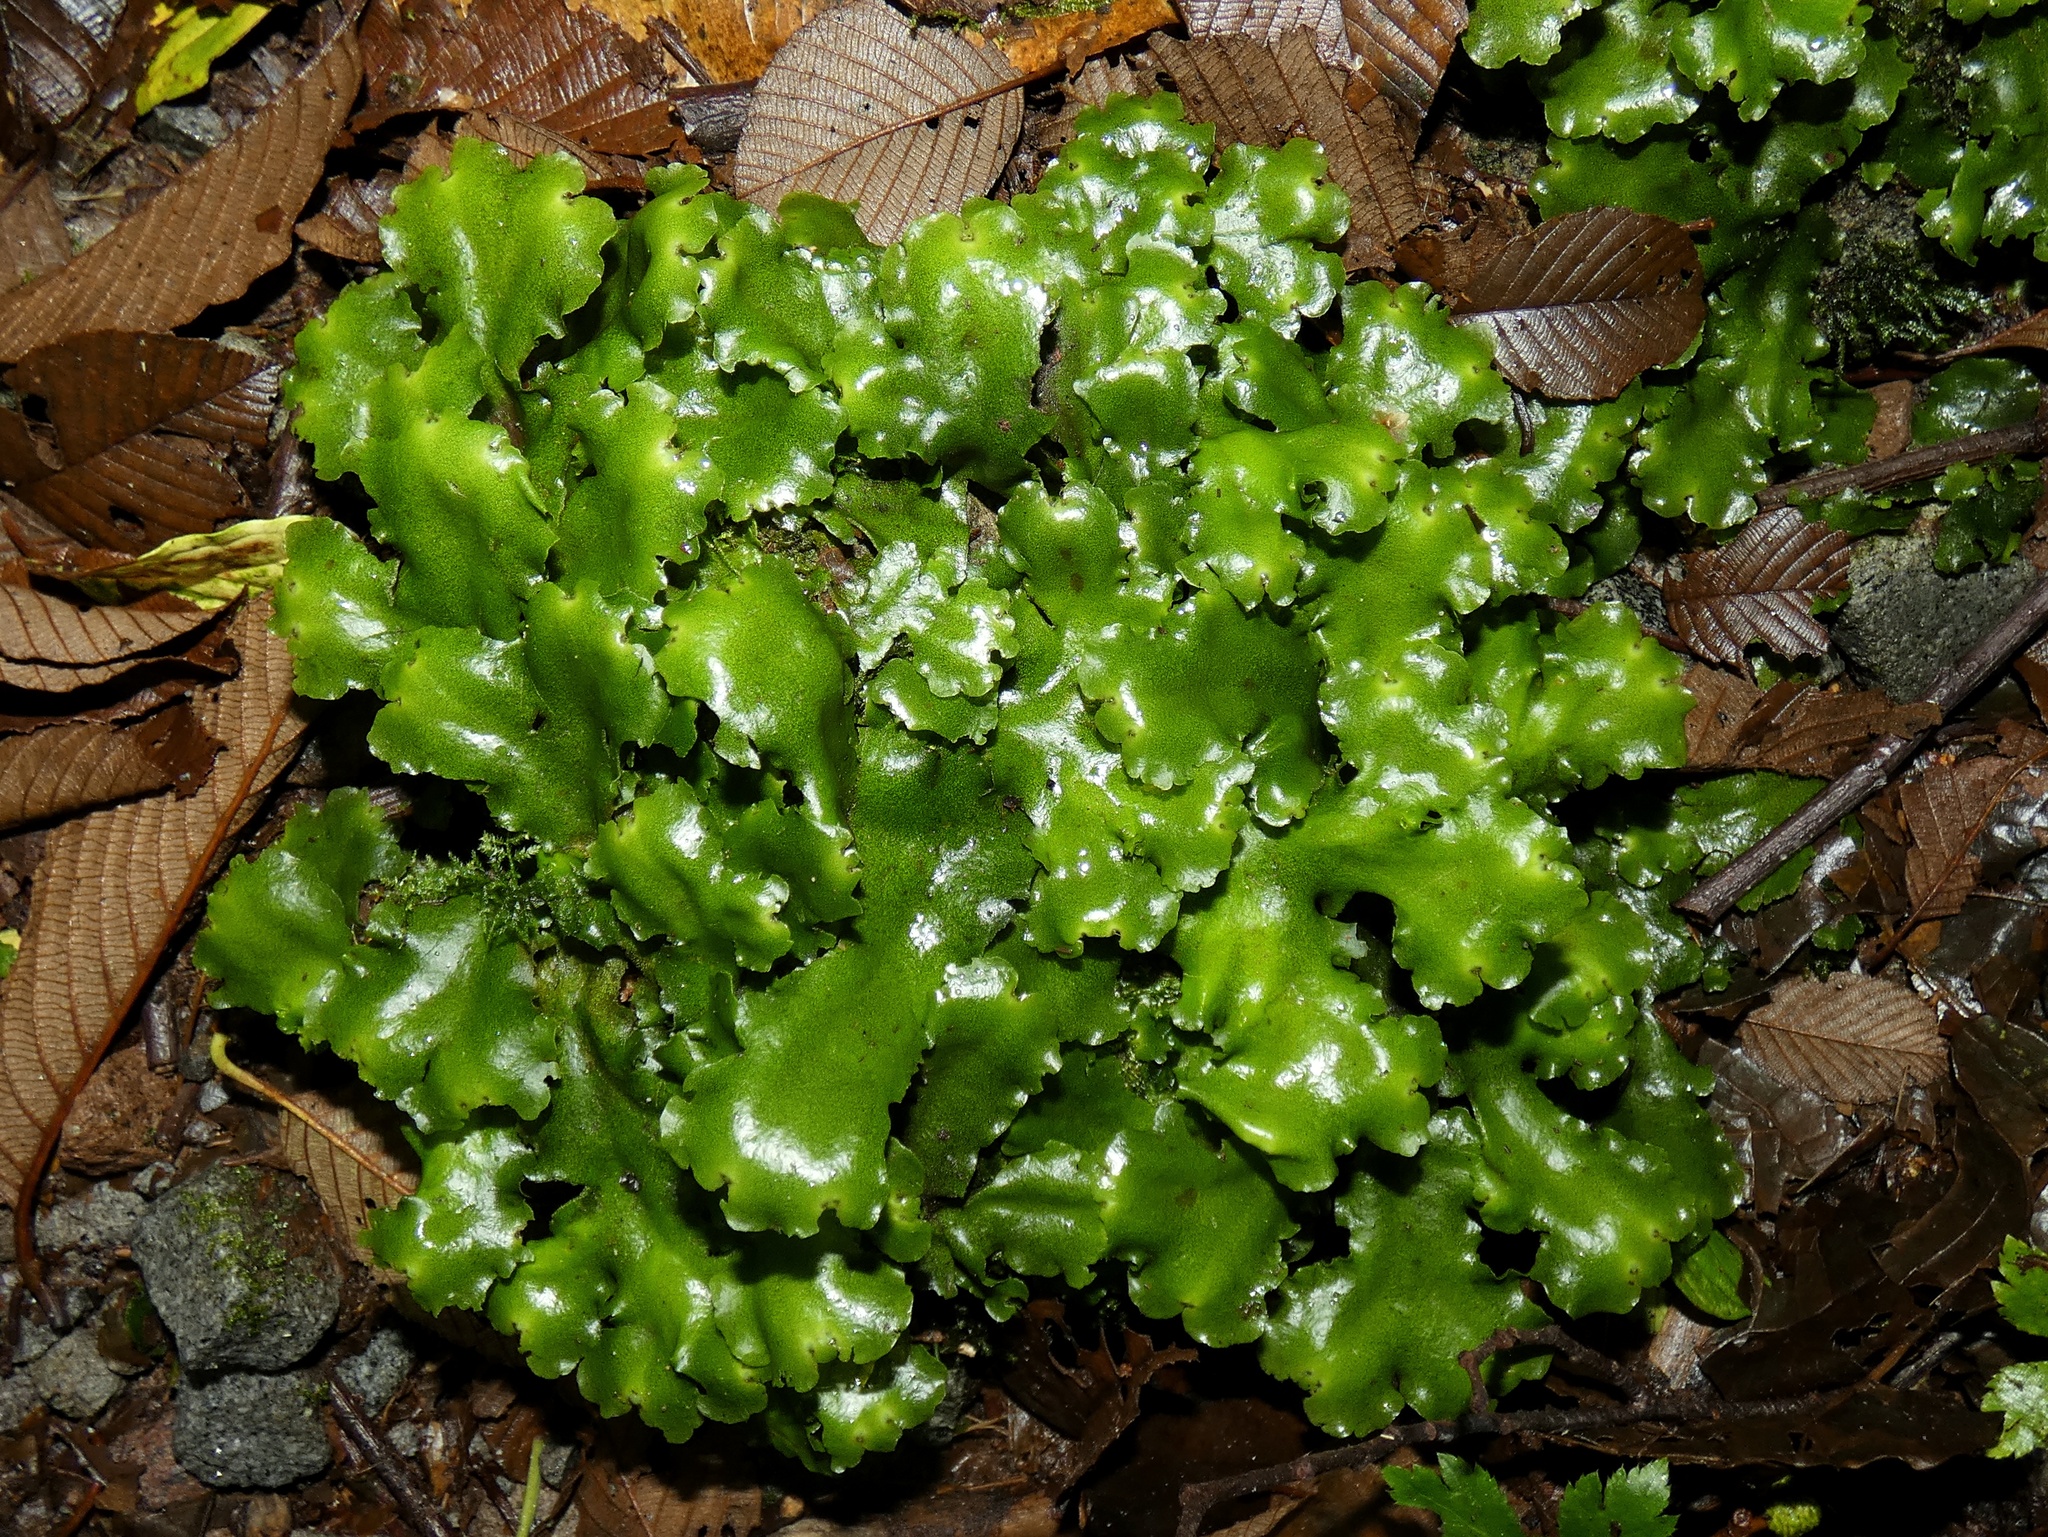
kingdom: Plantae
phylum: Marchantiophyta
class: Marchantiopsida
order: Marchantiales
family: Monocleaceae
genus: Monoclea
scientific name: Monoclea gottschei
